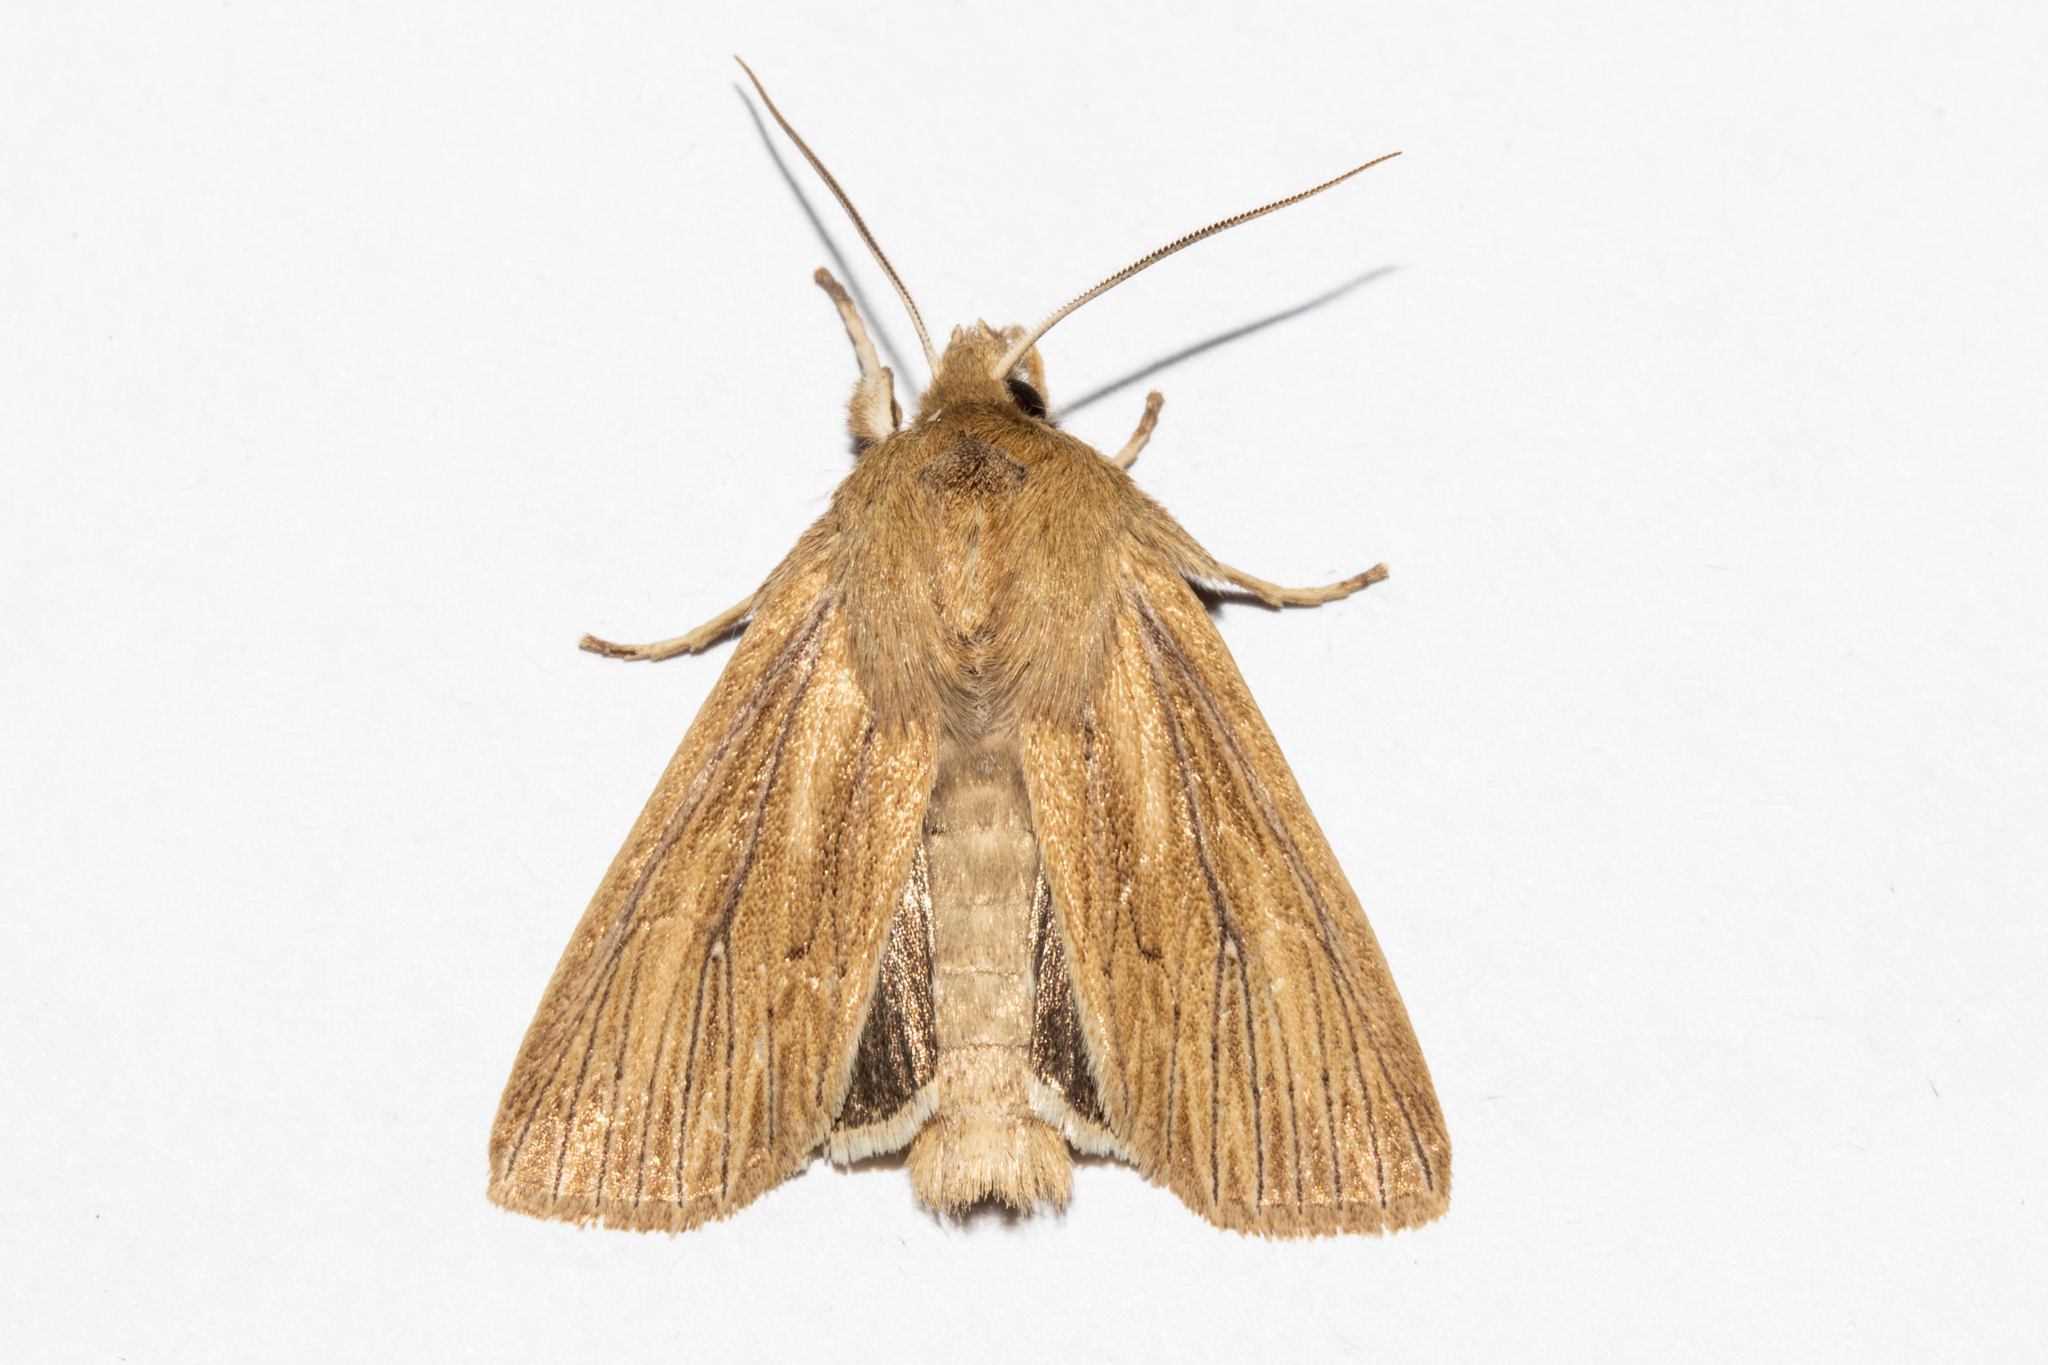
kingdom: Animalia
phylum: Arthropoda
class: Insecta
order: Lepidoptera
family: Noctuidae
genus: Ichneutica
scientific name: Ichneutica arotis
